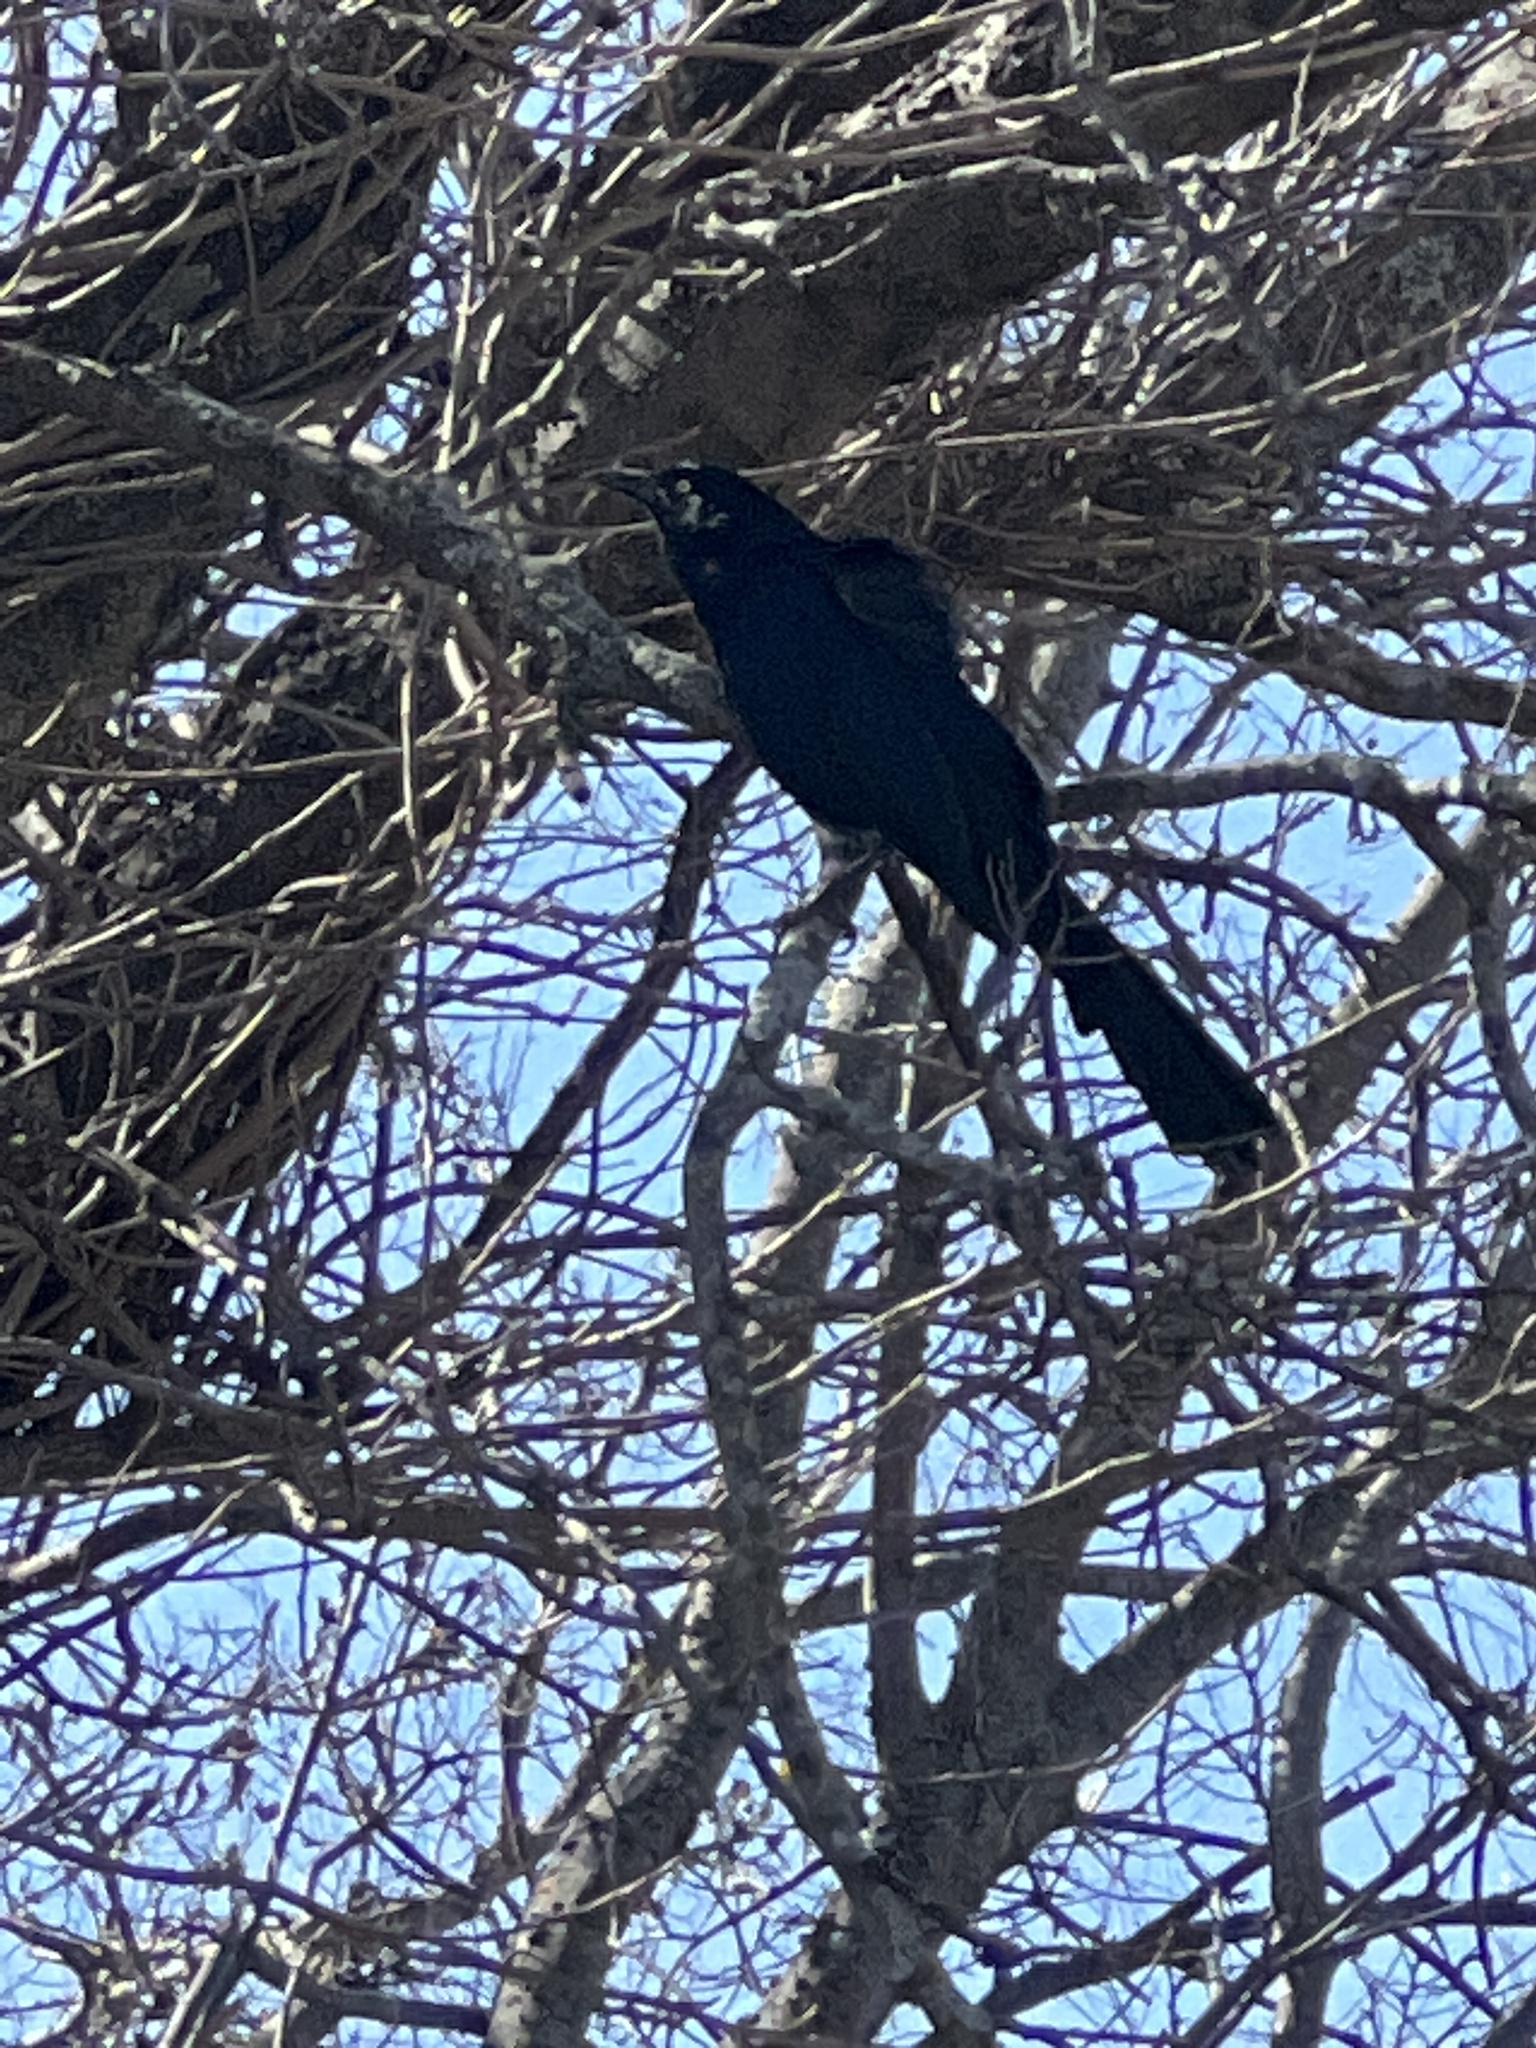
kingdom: Animalia
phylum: Chordata
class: Aves
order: Passeriformes
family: Icteridae
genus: Quiscalus
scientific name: Quiscalus mexicanus
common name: Great-tailed grackle
